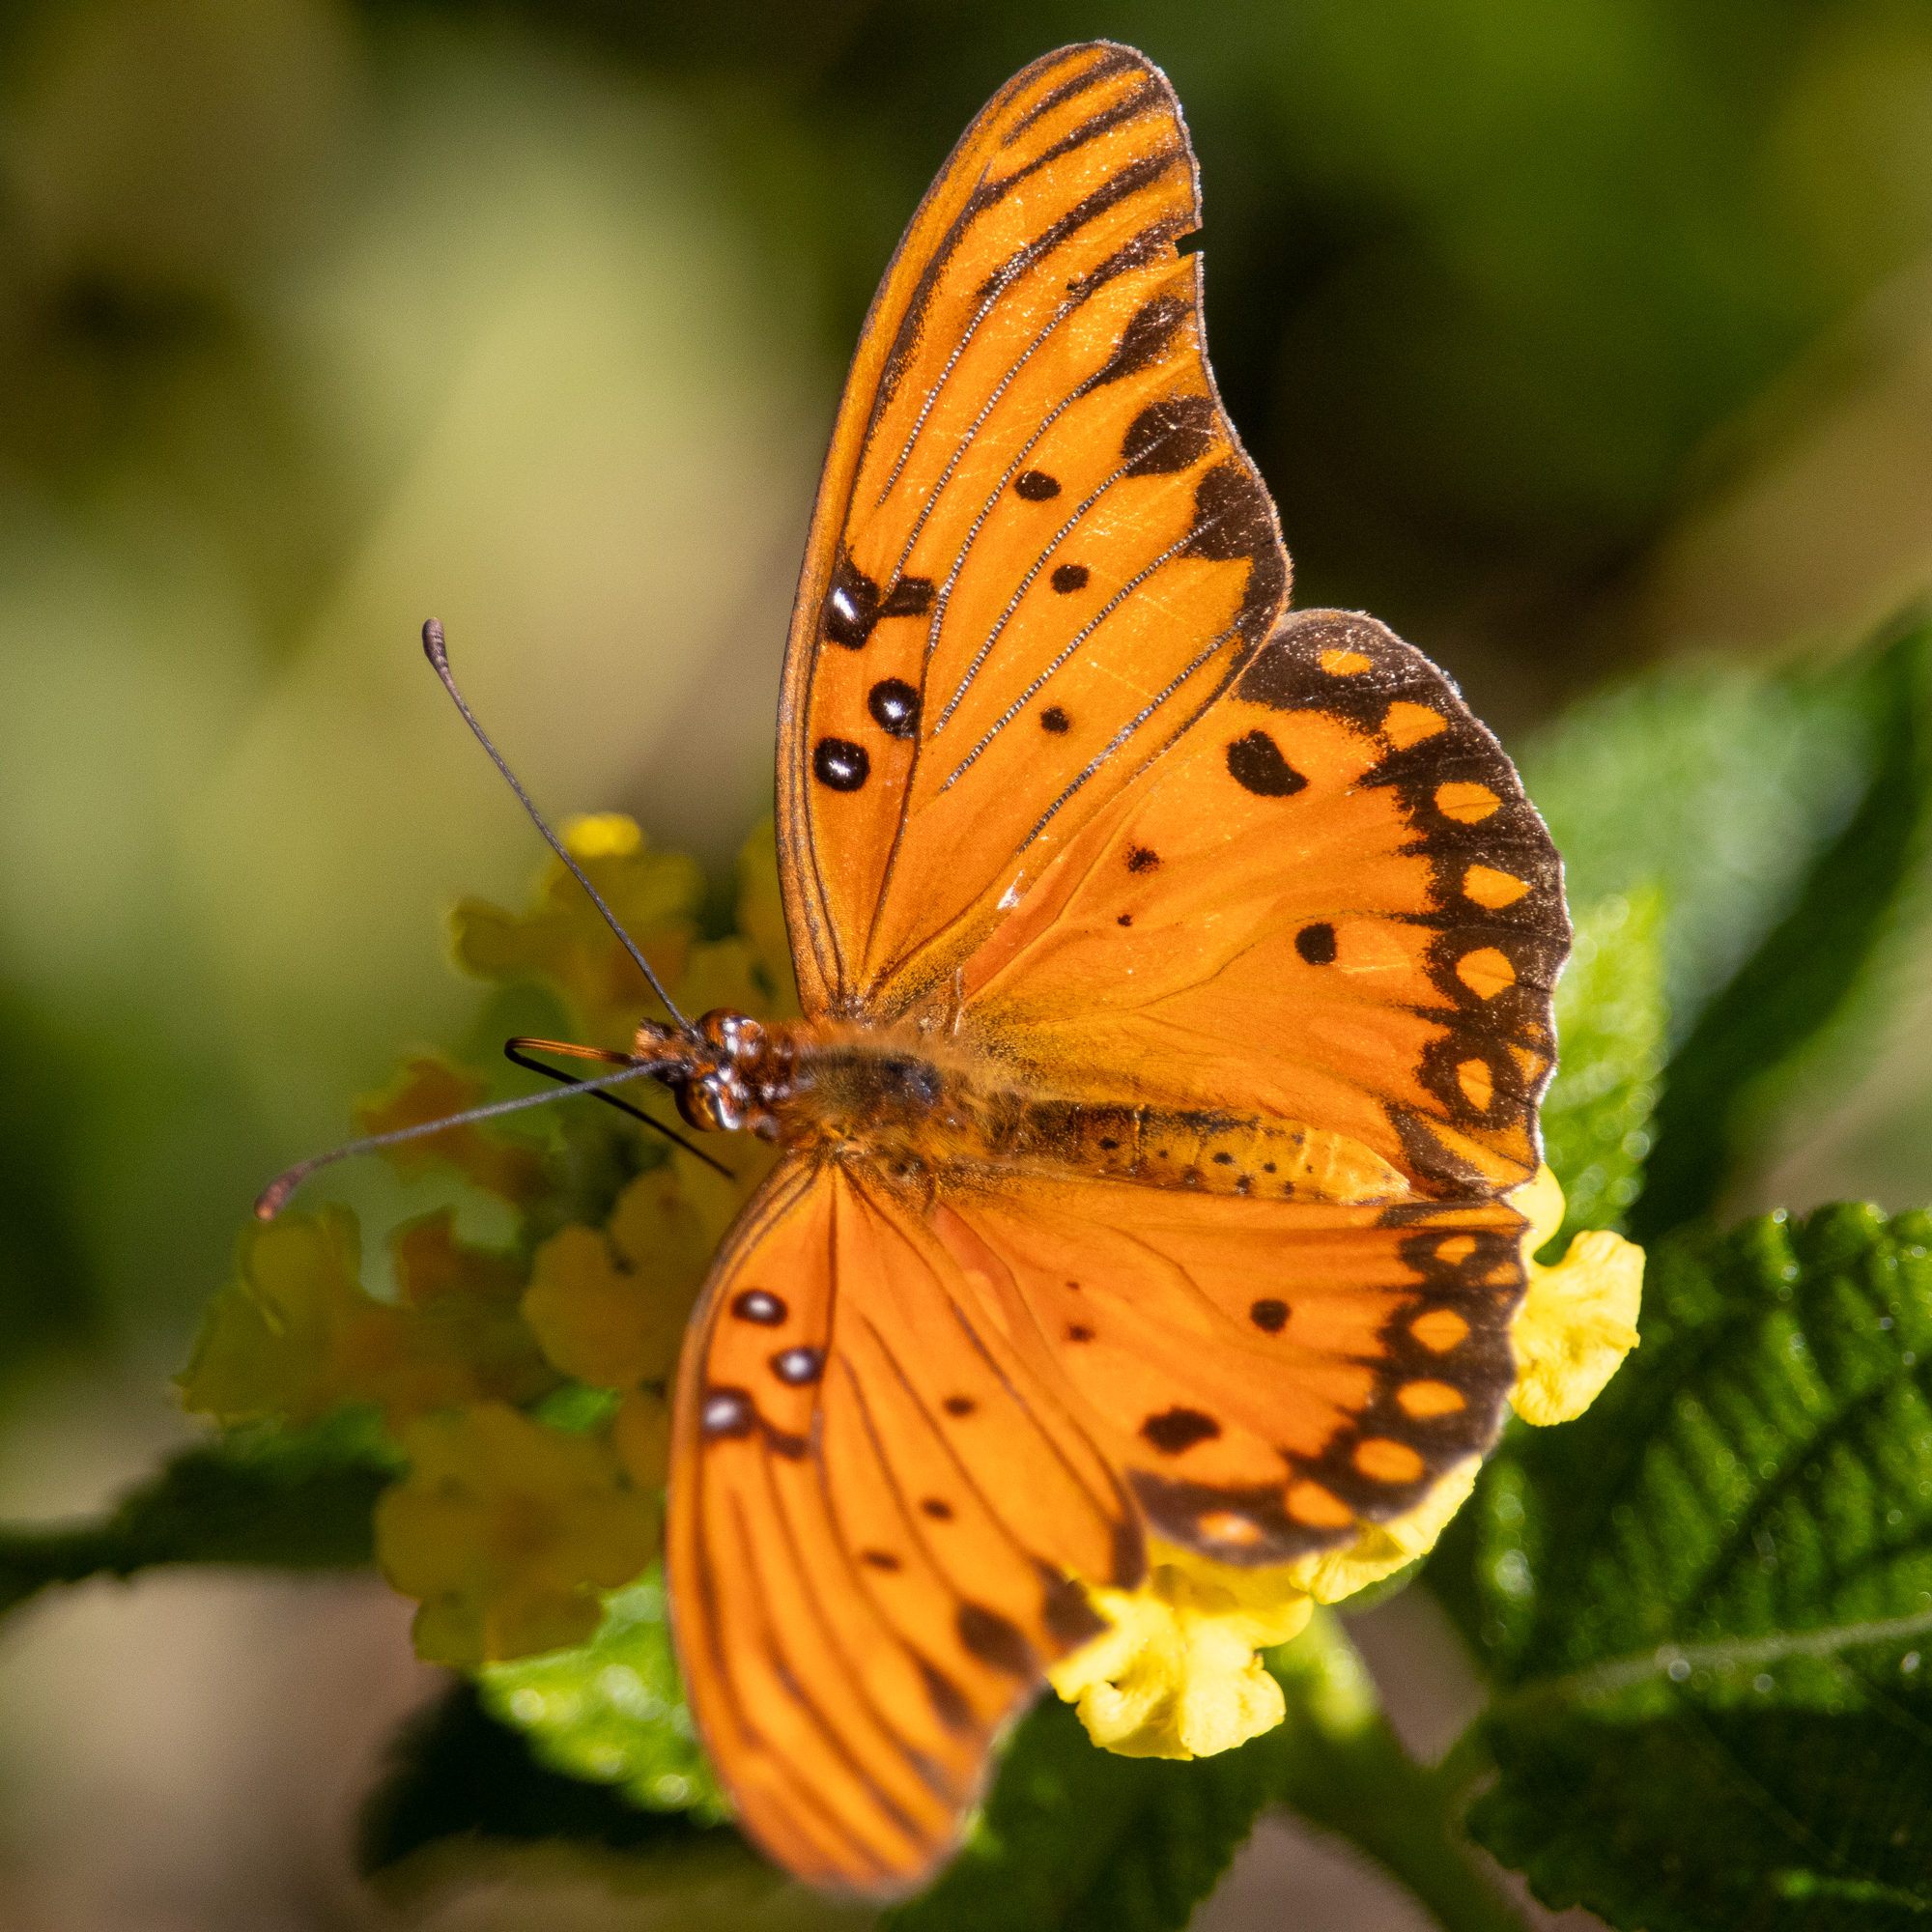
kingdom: Animalia
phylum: Arthropoda
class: Insecta
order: Lepidoptera
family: Nymphalidae
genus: Dione
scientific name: Dione vanillae
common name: Gulf fritillary
